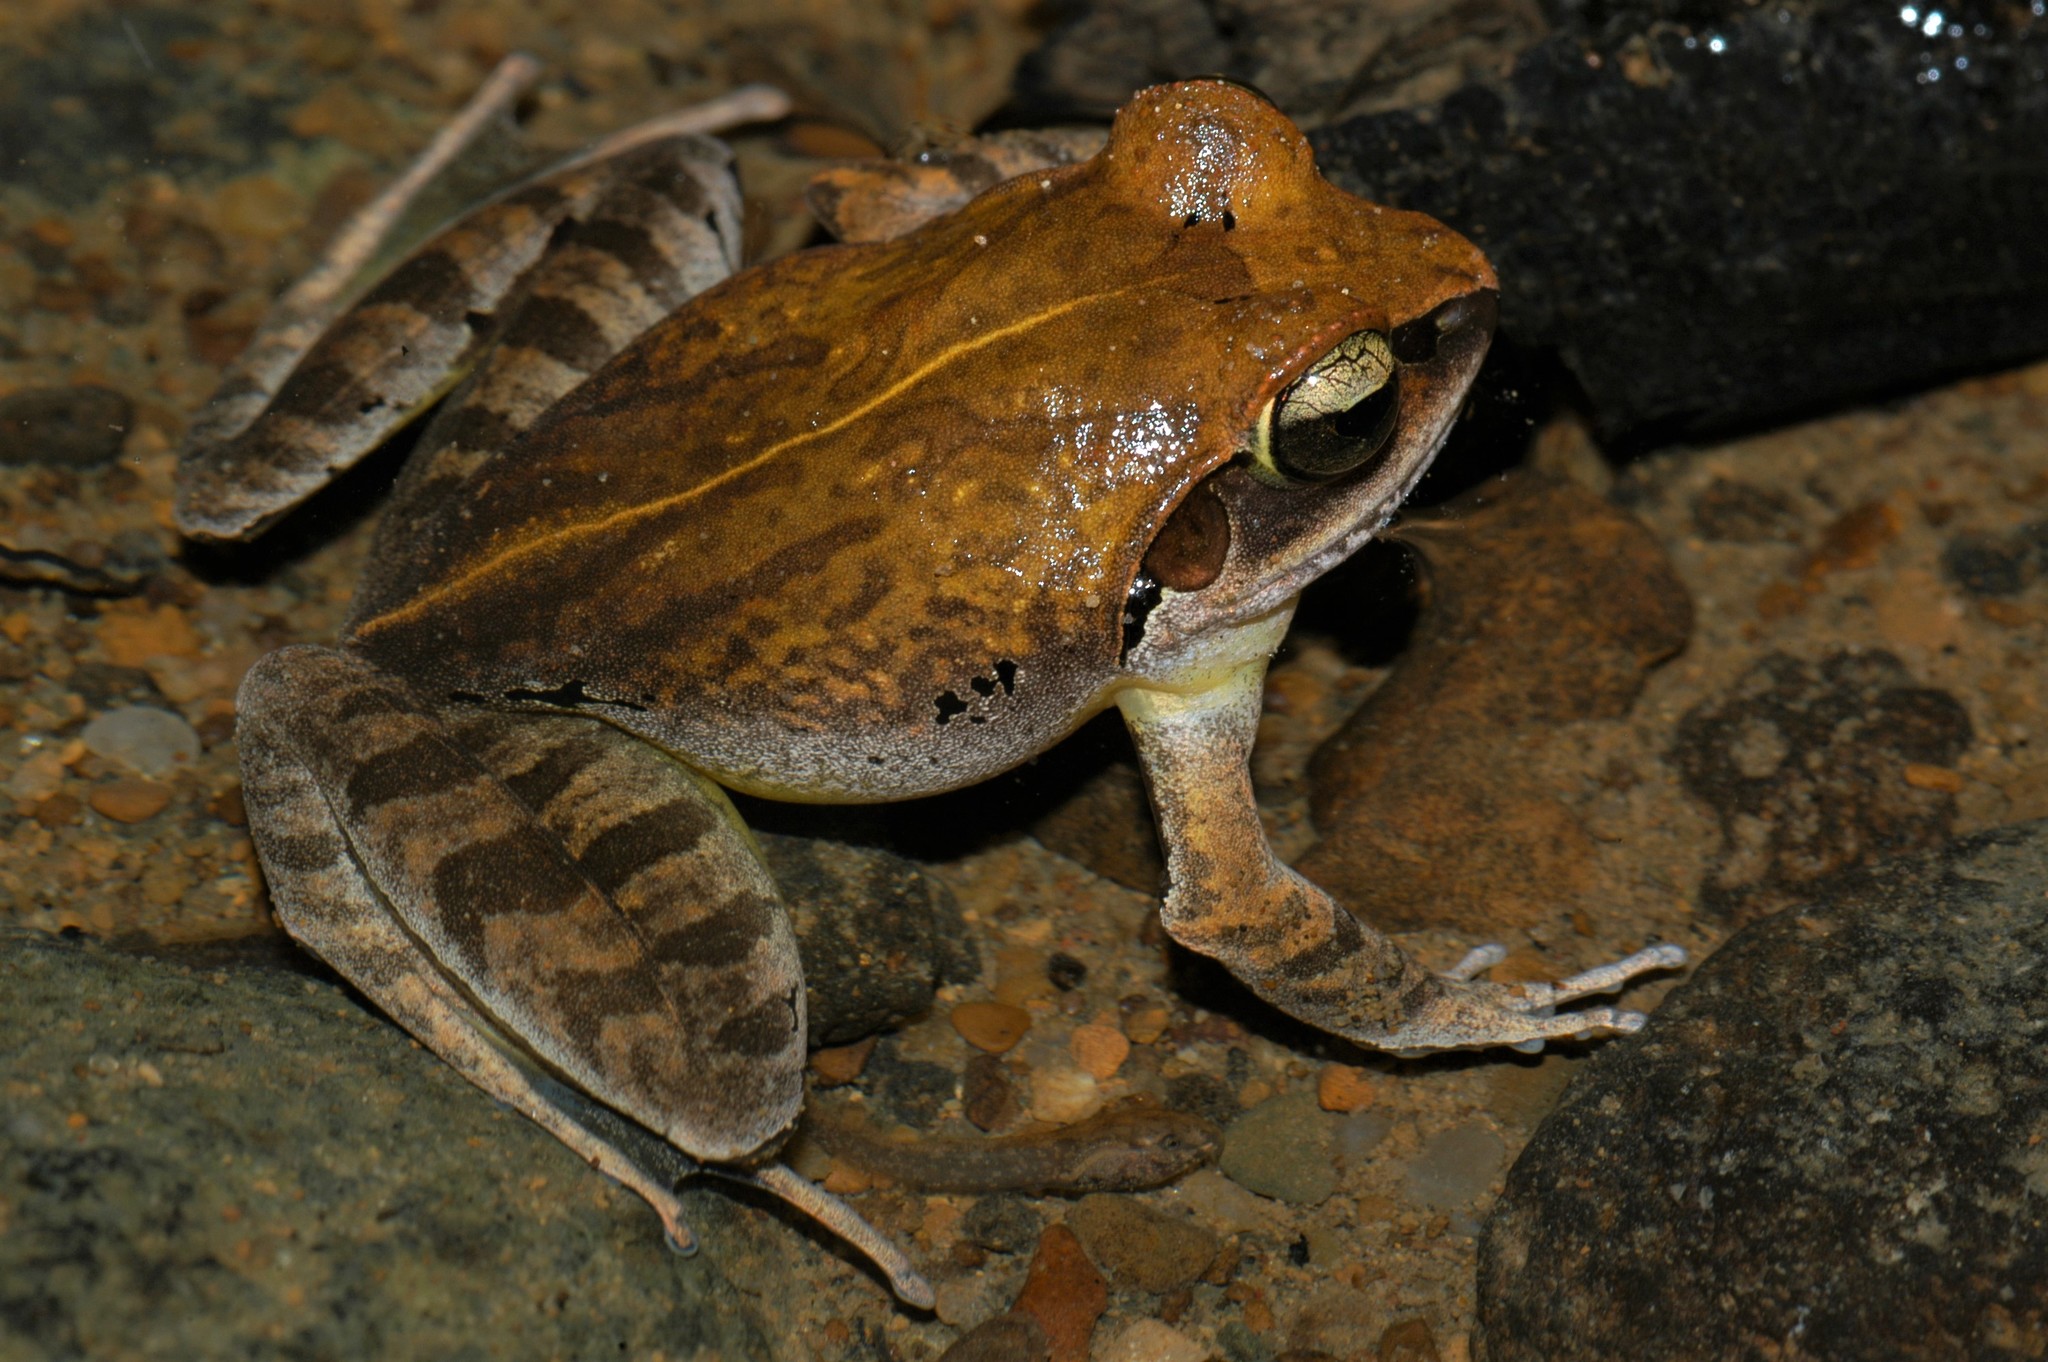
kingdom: Animalia
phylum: Chordata
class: Amphibia
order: Anura
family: Mantellidae
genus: Aglyptodactylus
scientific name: Aglyptodactylus securifer
